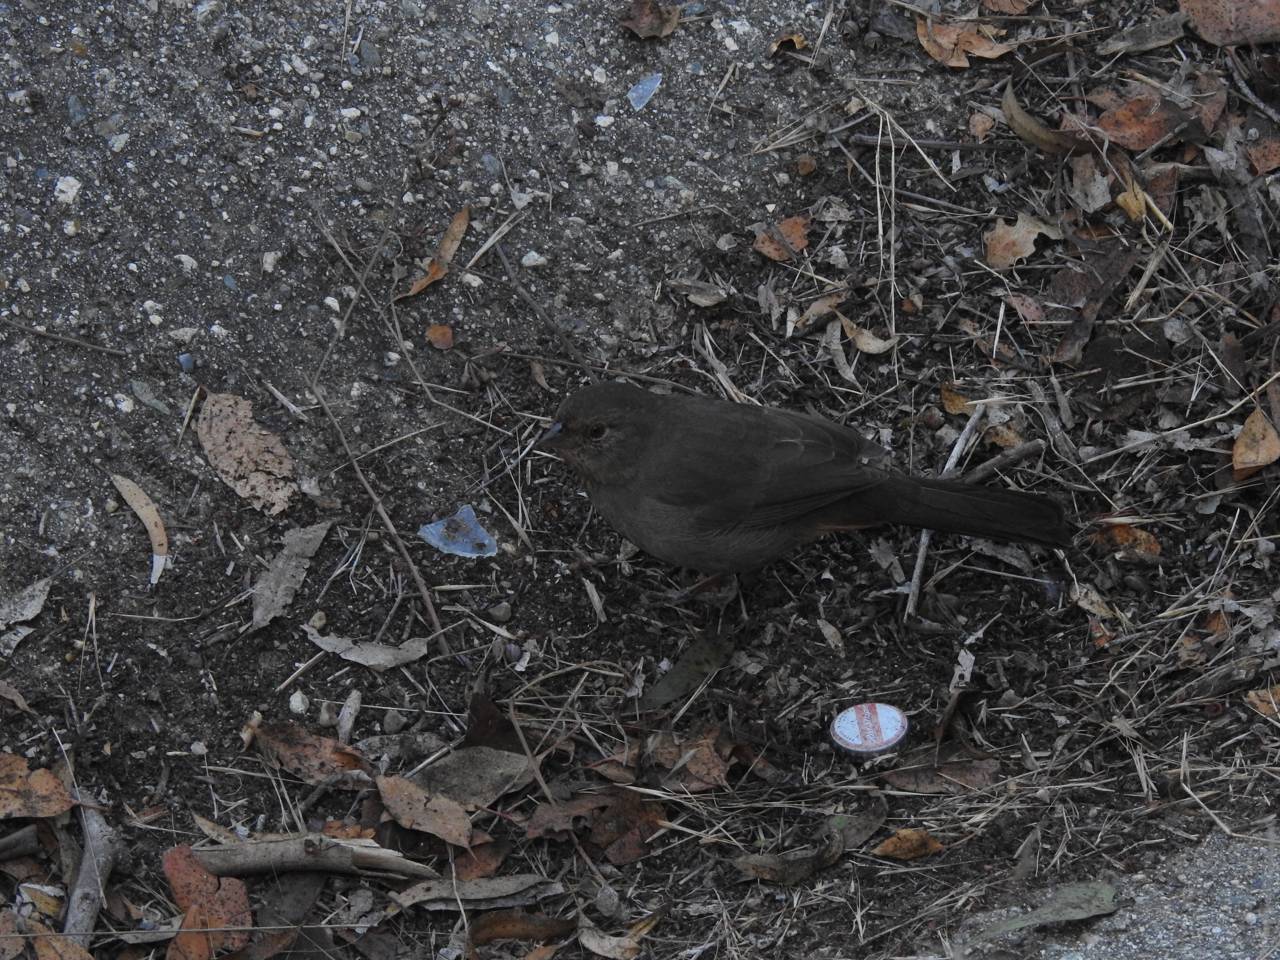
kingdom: Animalia
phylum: Chordata
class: Aves
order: Passeriformes
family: Passerellidae
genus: Melozone
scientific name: Melozone crissalis
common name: California towhee
